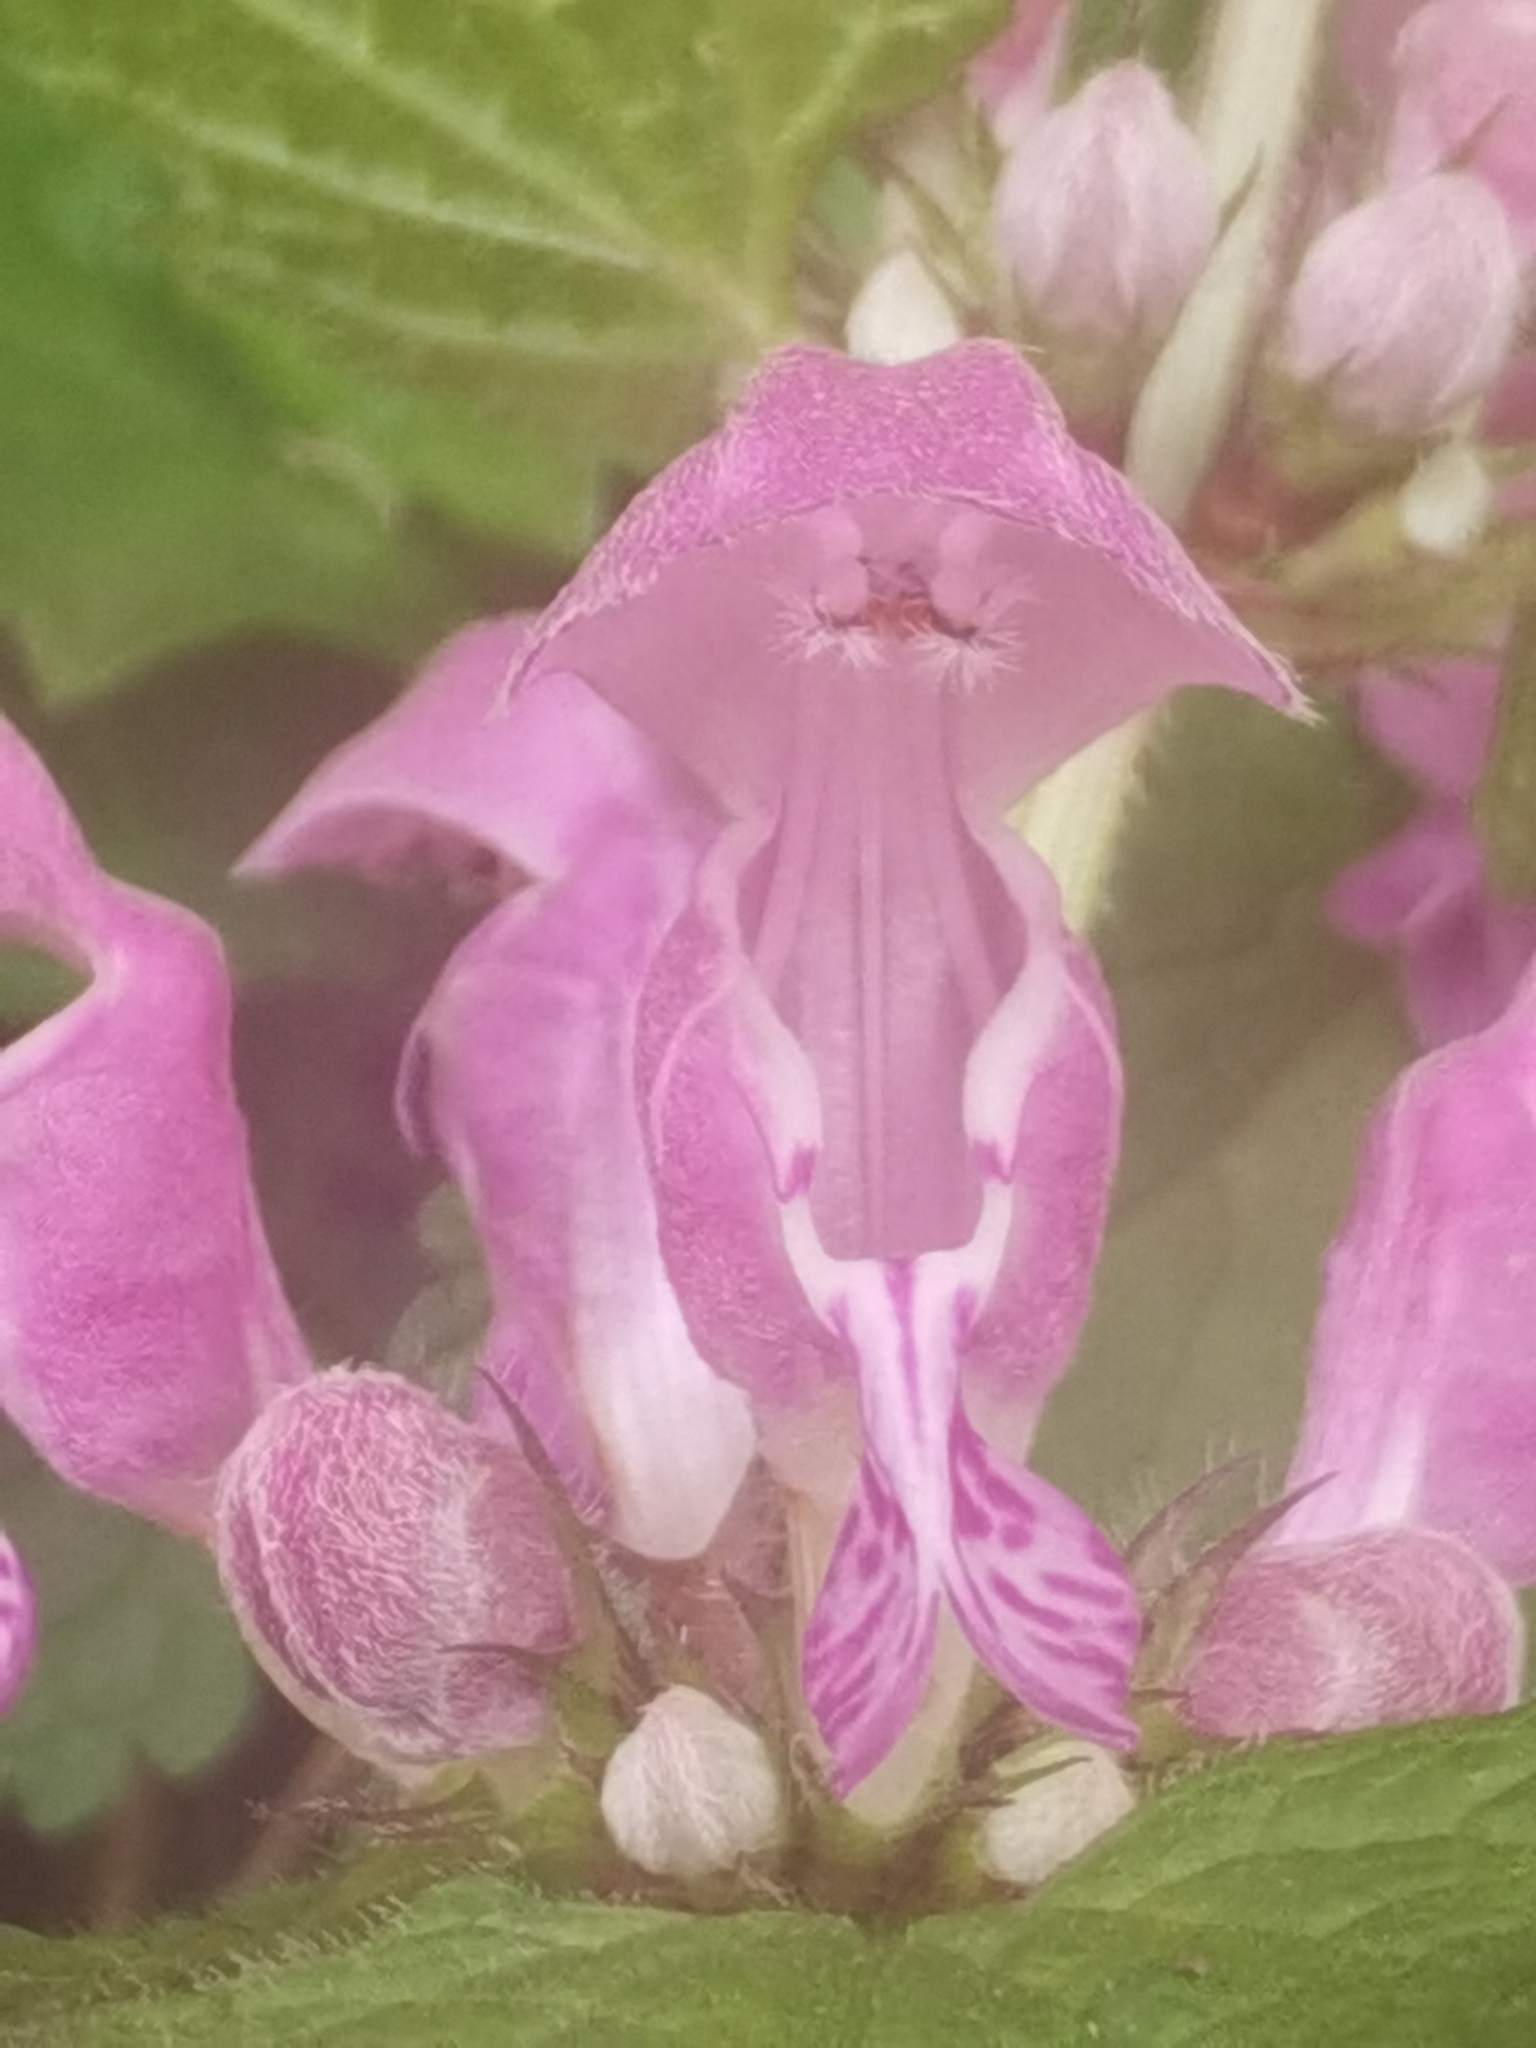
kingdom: Plantae
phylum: Tracheophyta
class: Magnoliopsida
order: Lamiales
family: Lamiaceae
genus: Lamium
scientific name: Lamium maculatum
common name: Spotted dead-nettle
